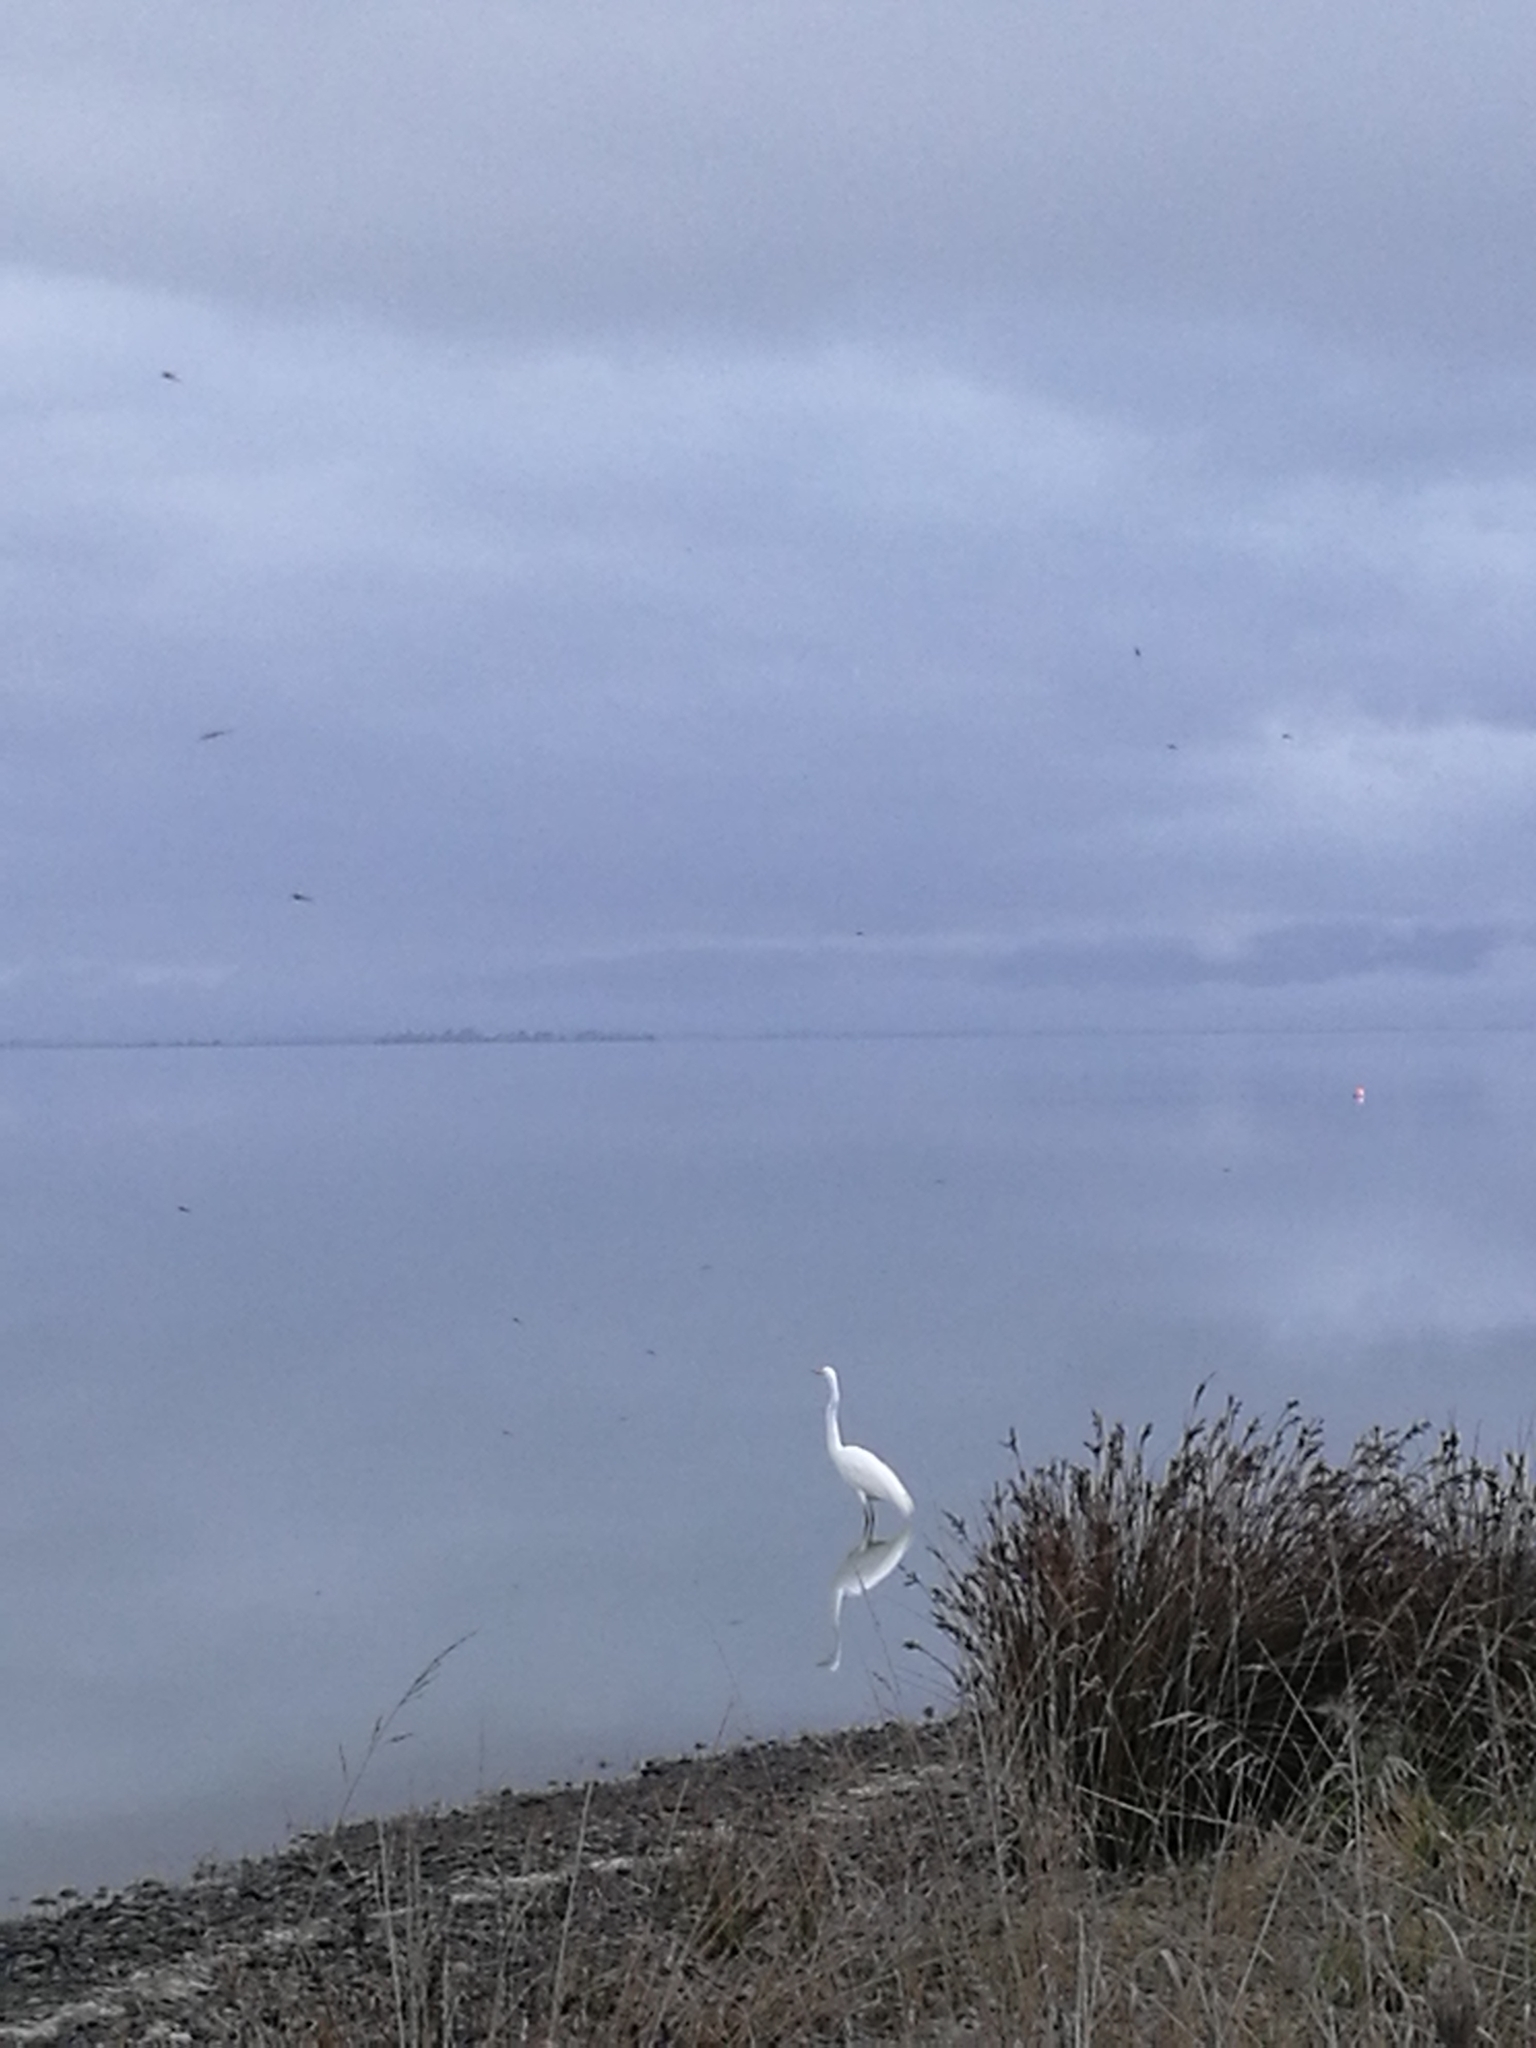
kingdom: Animalia
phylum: Chordata
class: Aves
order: Pelecaniformes
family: Ardeidae
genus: Ardea
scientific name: Ardea modesta
